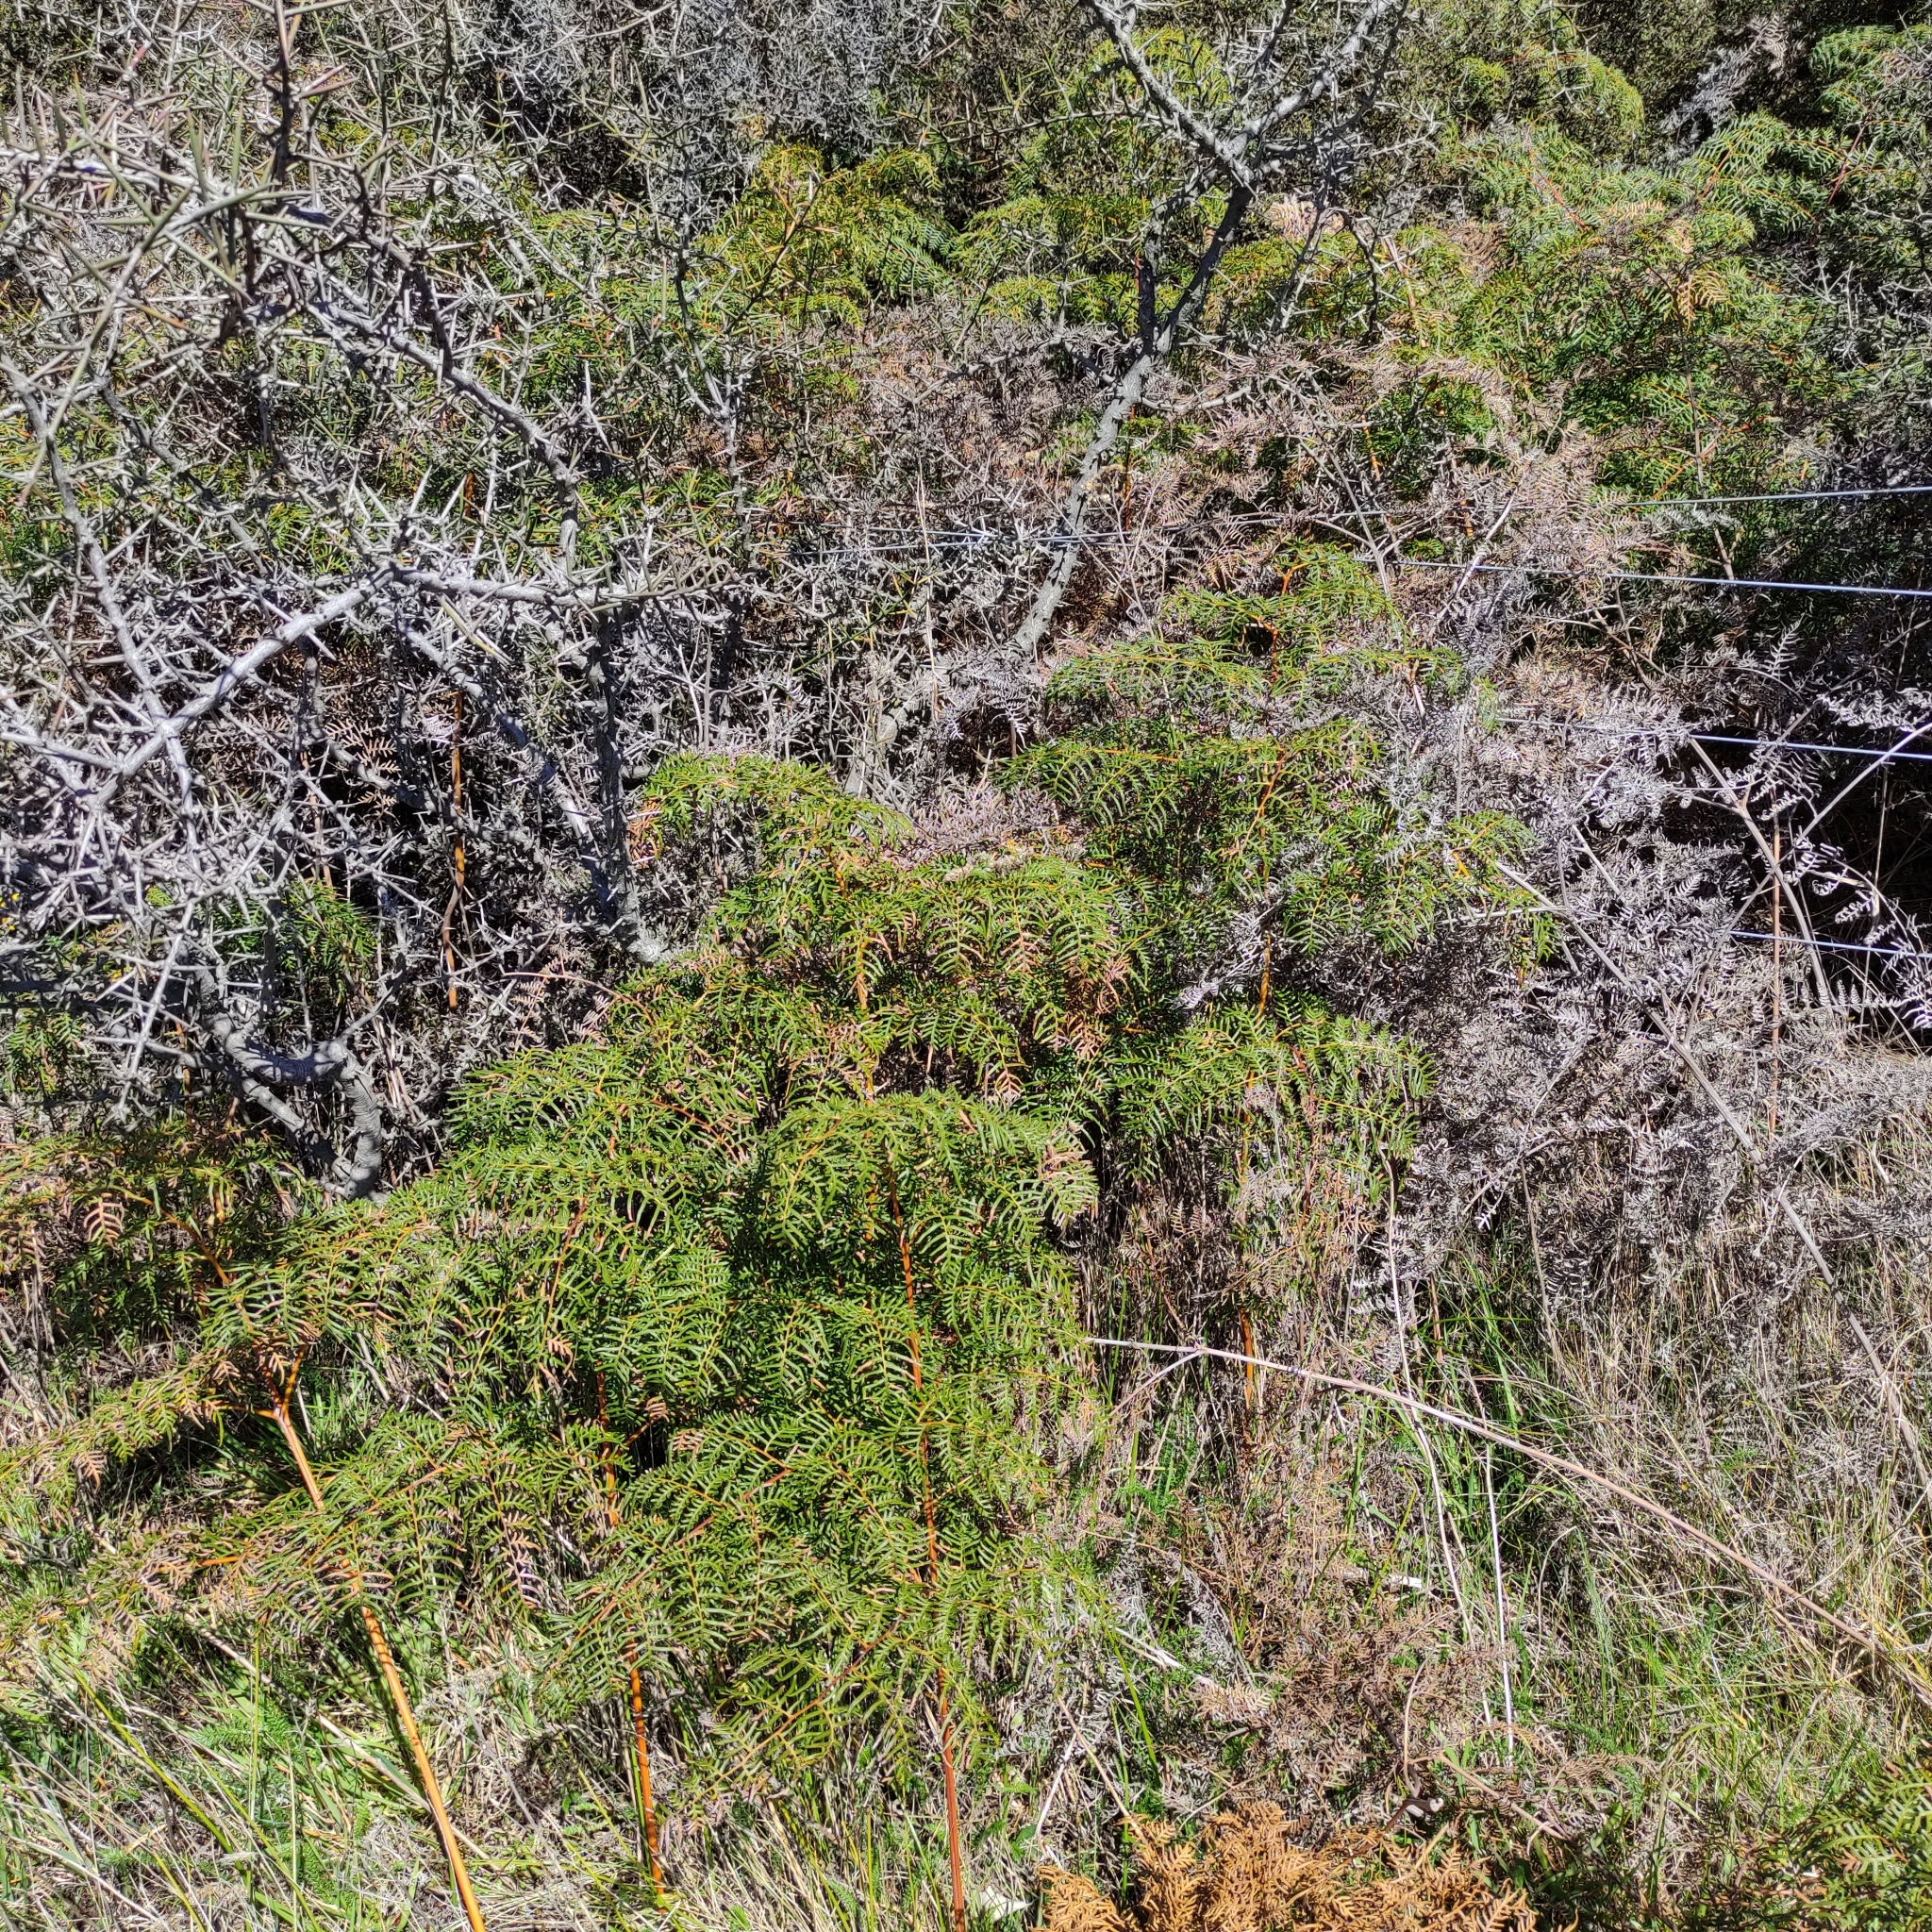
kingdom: Plantae
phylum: Tracheophyta
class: Polypodiopsida
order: Polypodiales
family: Dennstaedtiaceae
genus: Pteridium
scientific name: Pteridium esculentum
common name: Bracken fern
